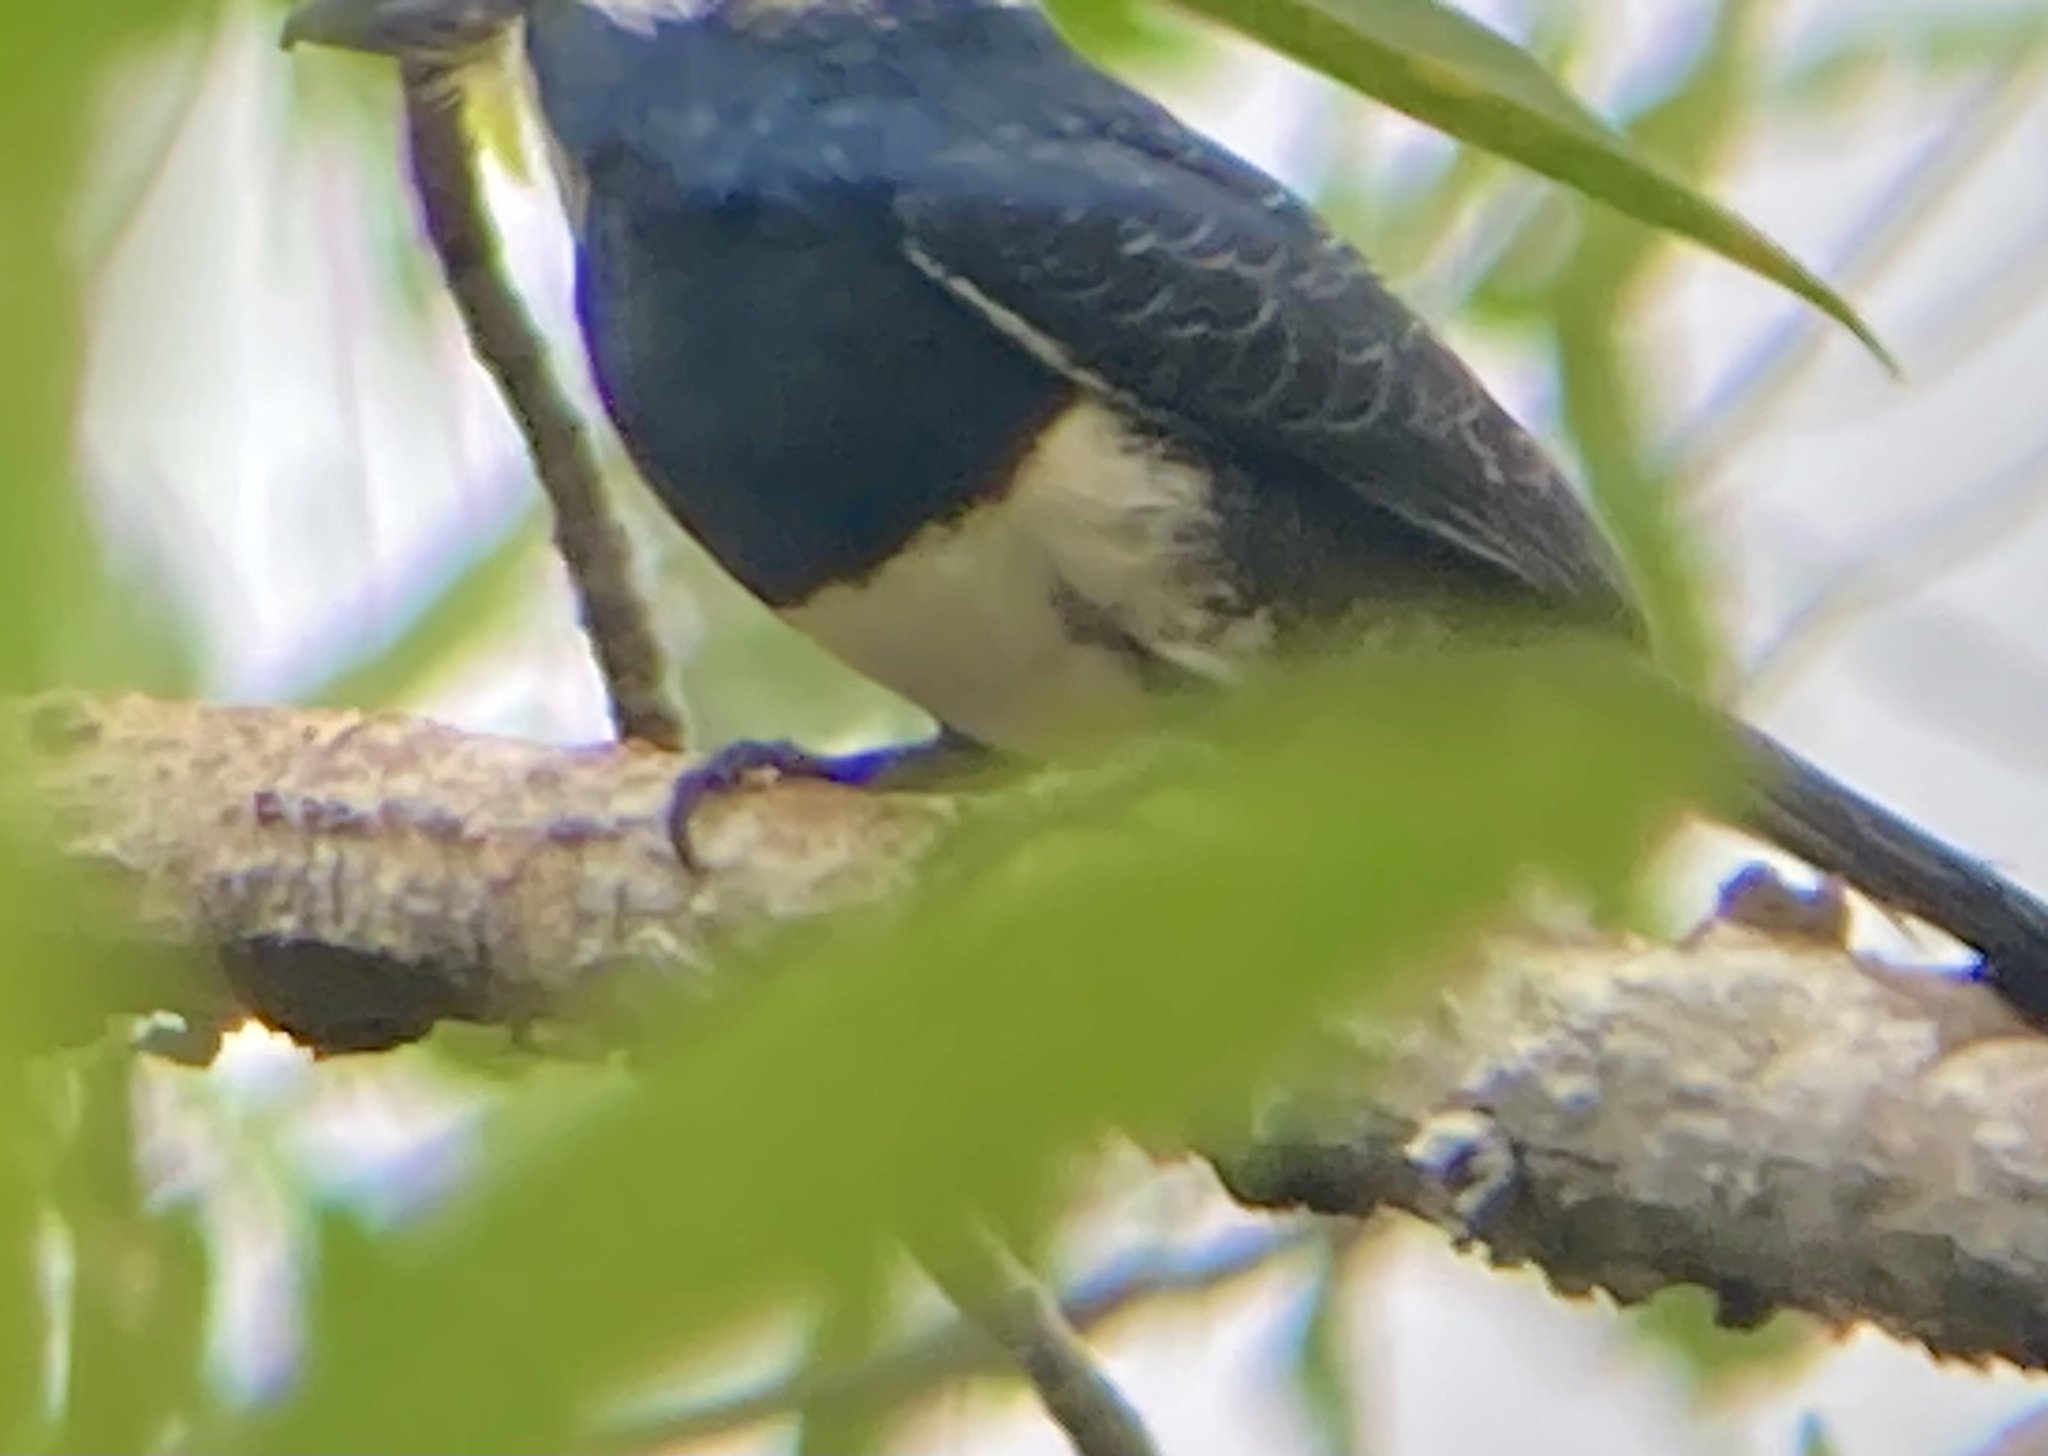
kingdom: Animalia
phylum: Chordata
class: Aves
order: Piciformes
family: Bucconidae
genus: Notharchus
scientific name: Notharchus pectoralis
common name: Black-breasted puffbird
